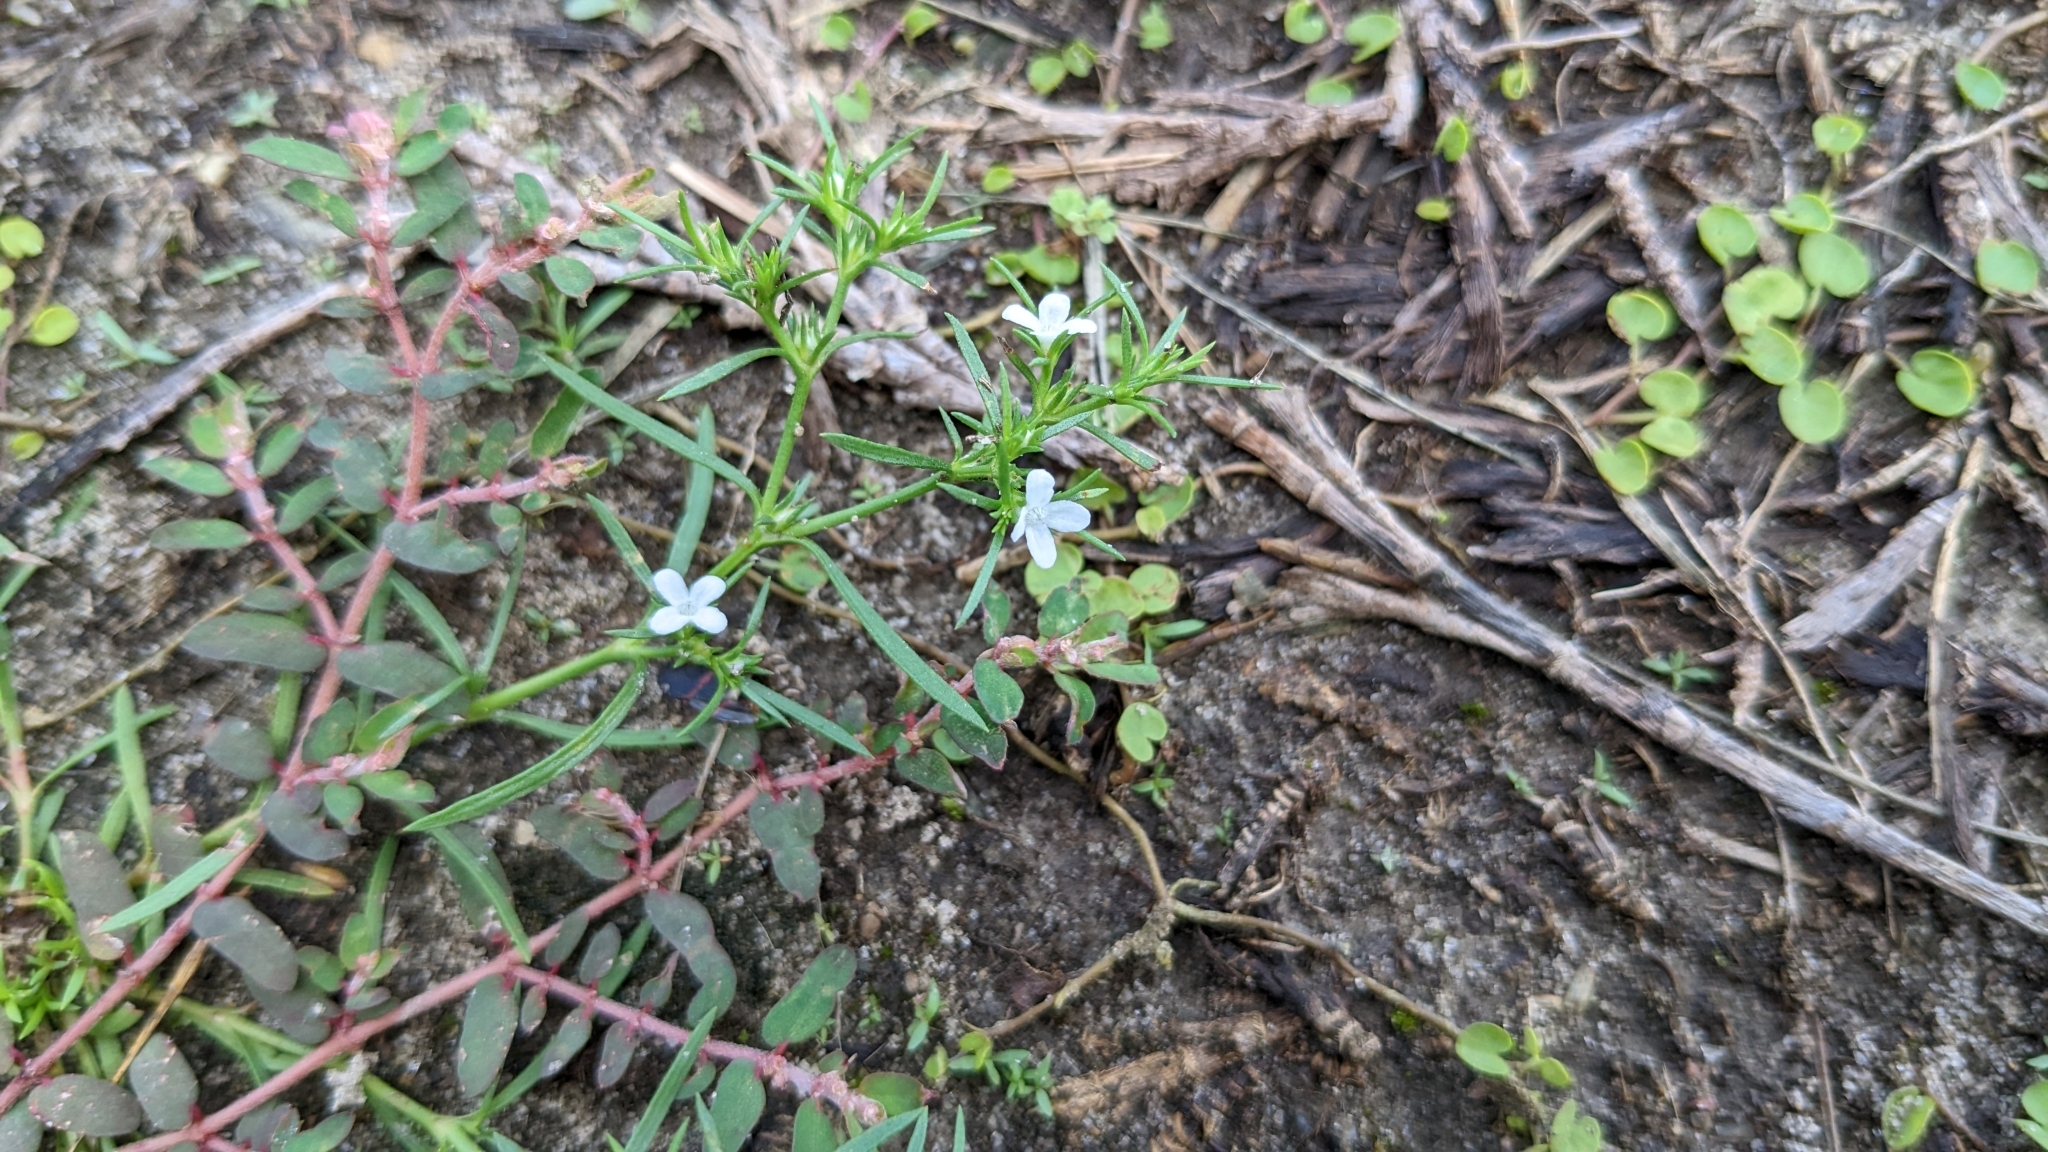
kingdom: Plantae
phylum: Tracheophyta
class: Magnoliopsida
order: Lamiales
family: Tetrachondraceae
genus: Polypremum
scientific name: Polypremum procumbens
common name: Juniper-leaf
